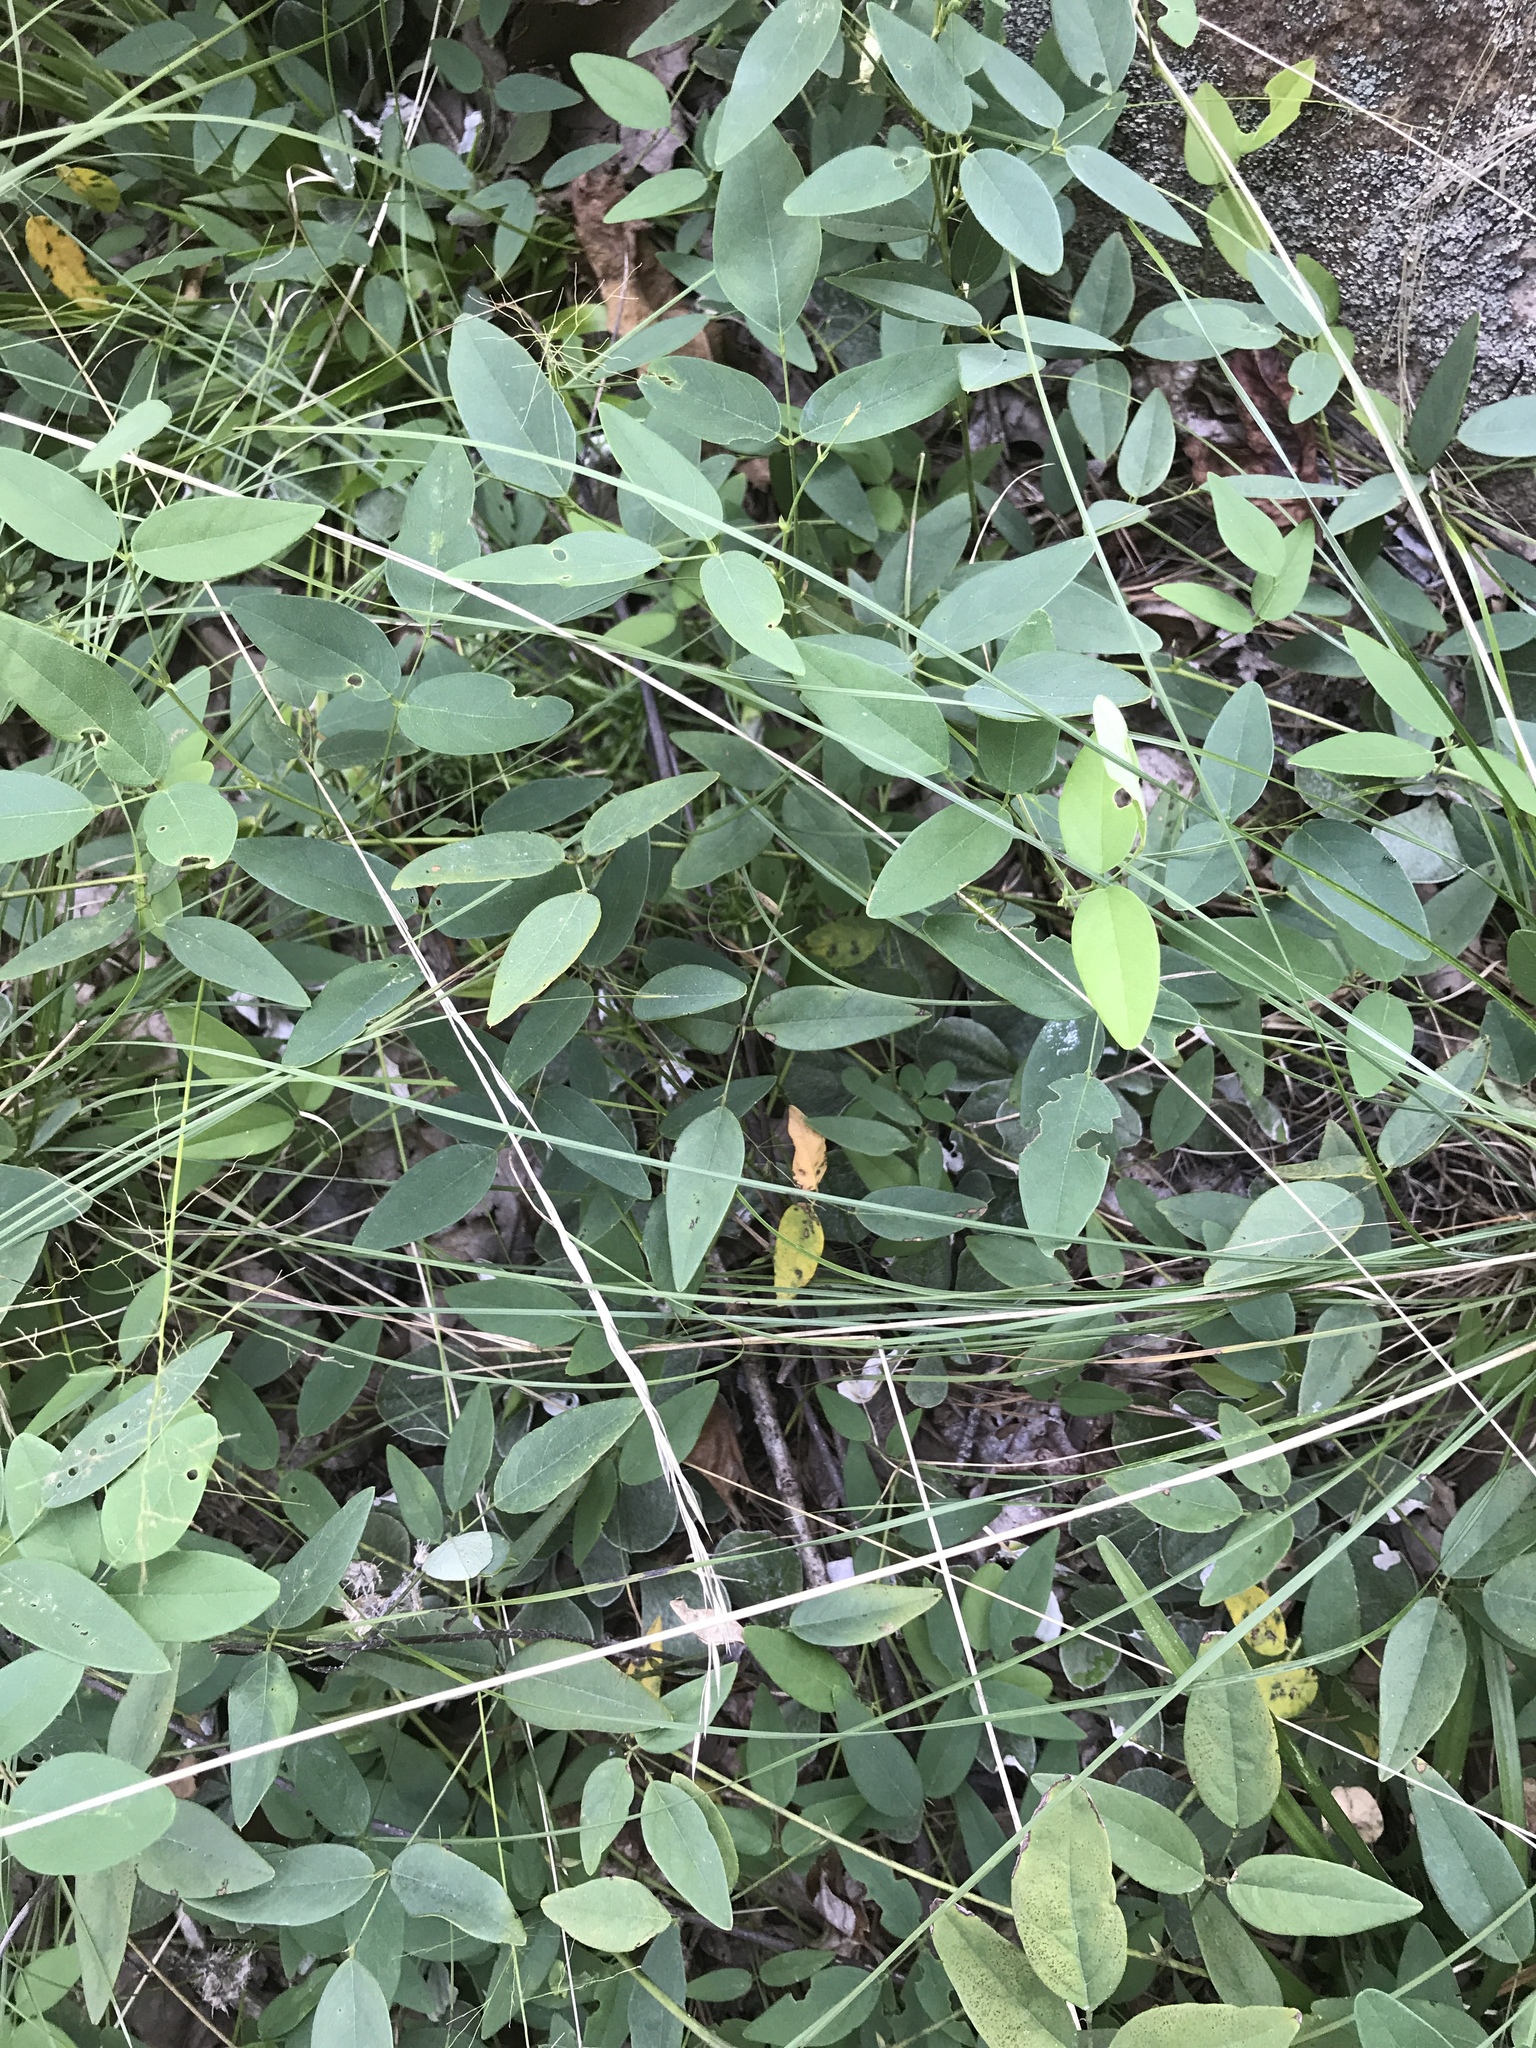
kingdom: Plantae
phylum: Tracheophyta
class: Magnoliopsida
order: Fabales
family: Fabaceae
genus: Clitoria
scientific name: Clitoria mariana
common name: Butterfly-pea
